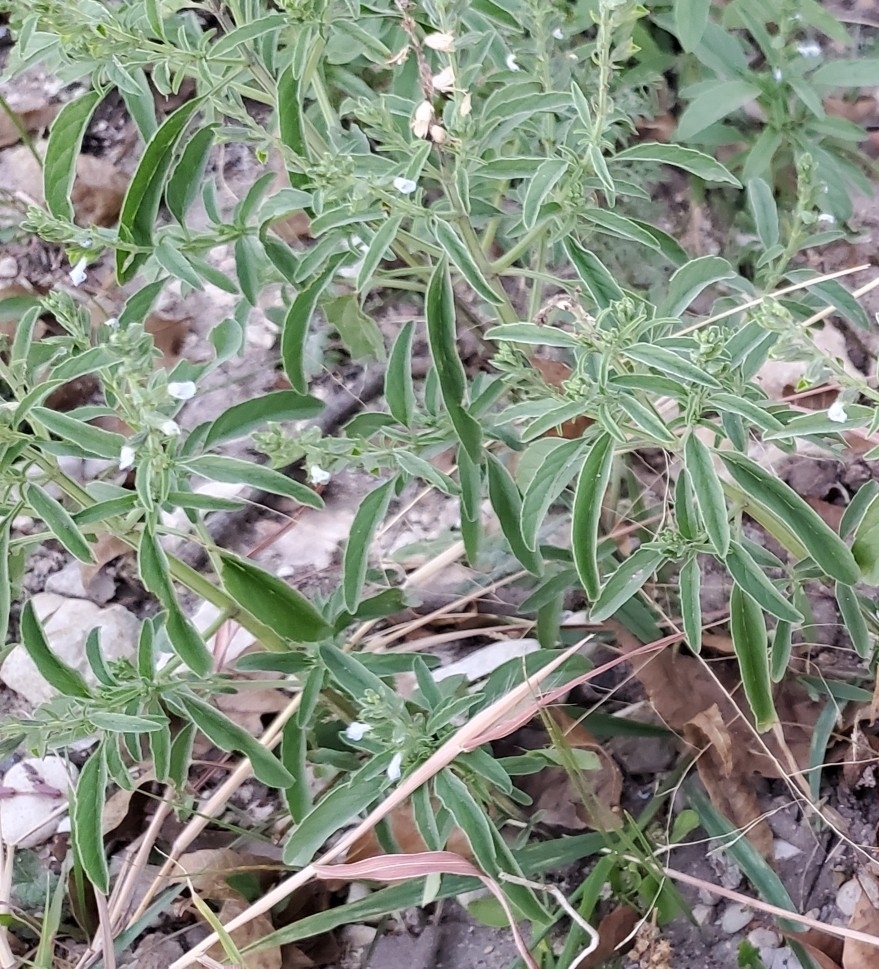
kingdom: Plantae
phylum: Tracheophyta
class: Magnoliopsida
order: Lamiales
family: Lamiaceae
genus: Salvia
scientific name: Salvia reflexa
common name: Mintweed
